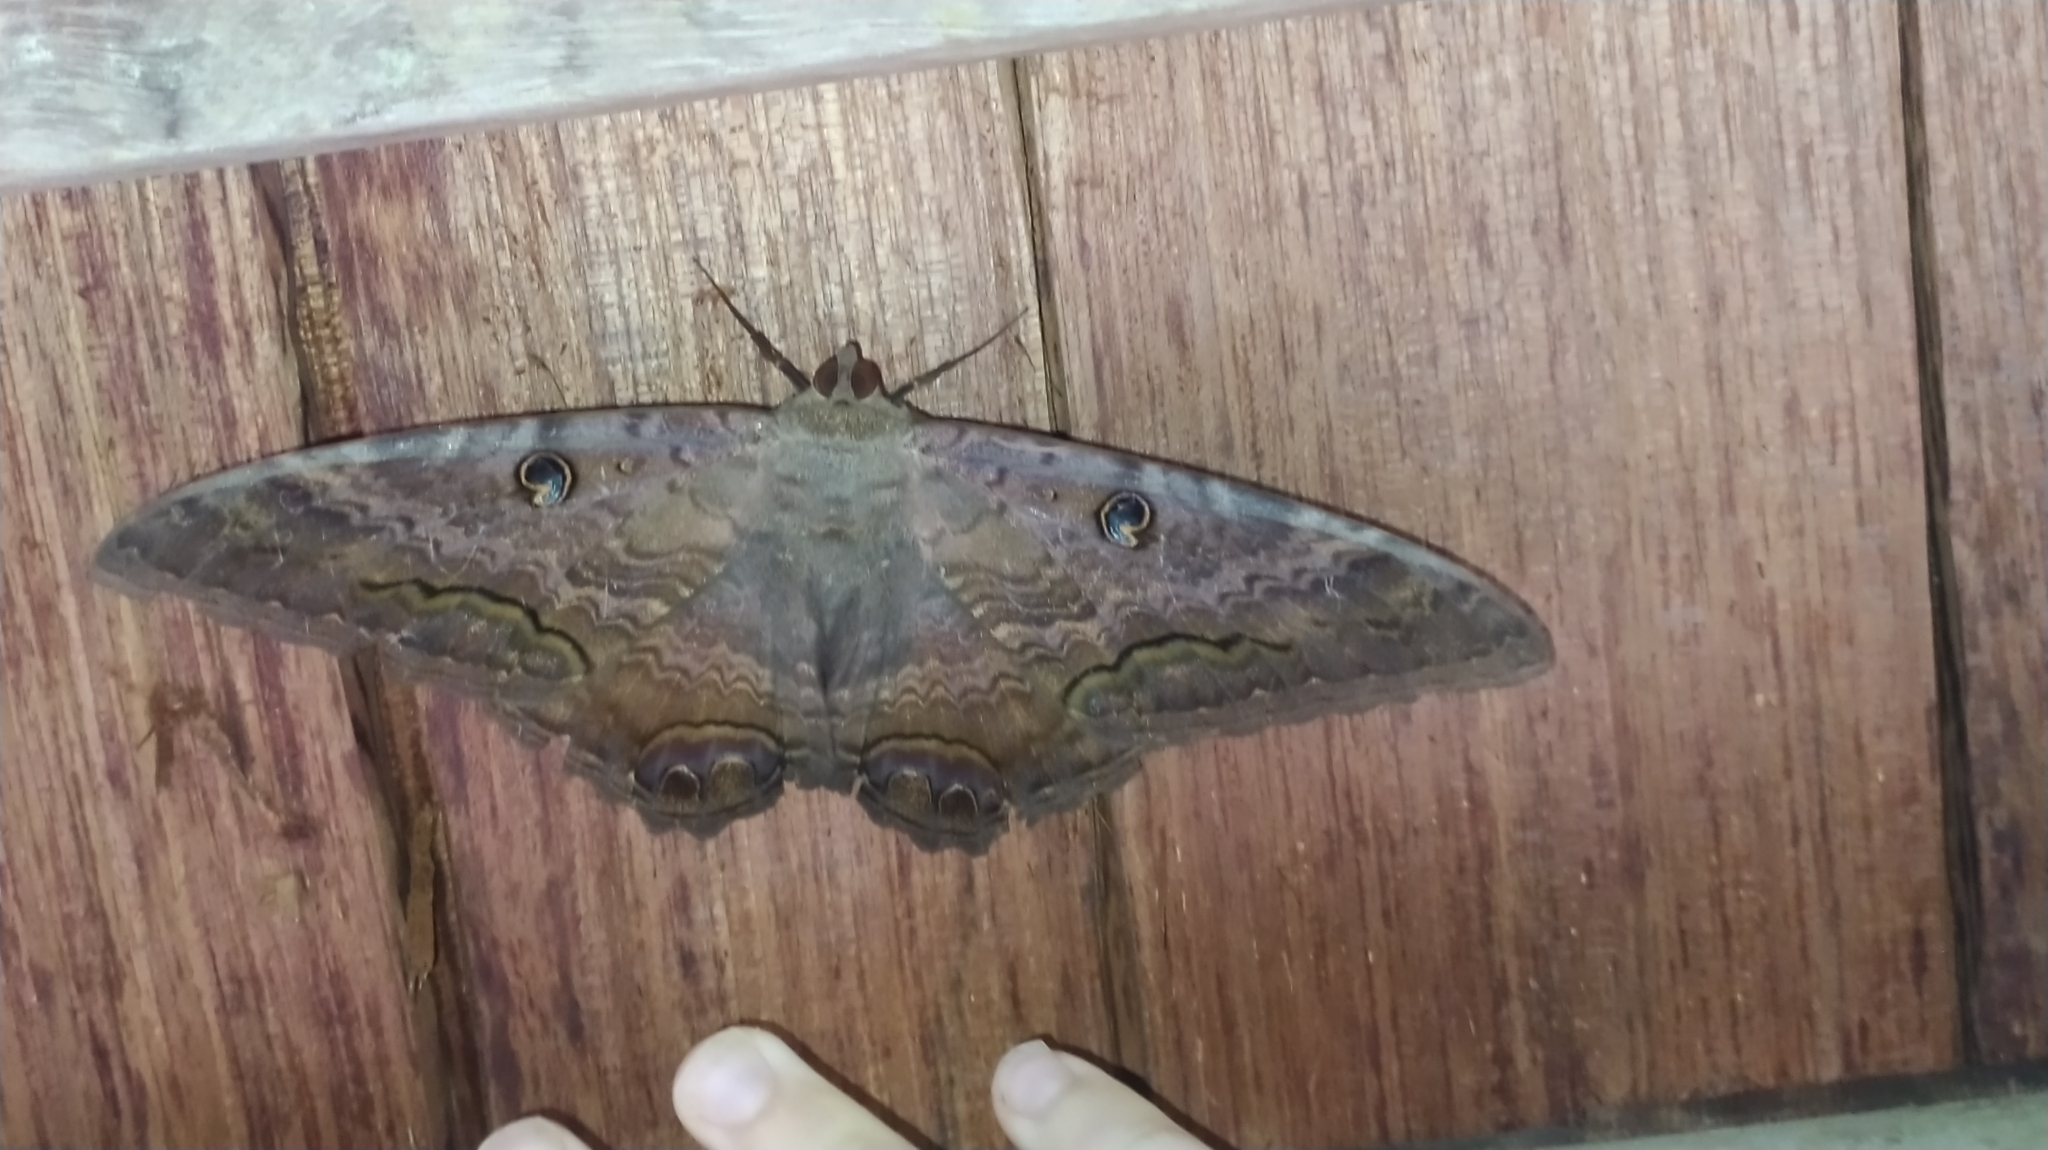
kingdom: Animalia
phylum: Arthropoda
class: Insecta
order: Lepidoptera
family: Erebidae
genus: Ascalapha
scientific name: Ascalapha odorata
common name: Black witch
